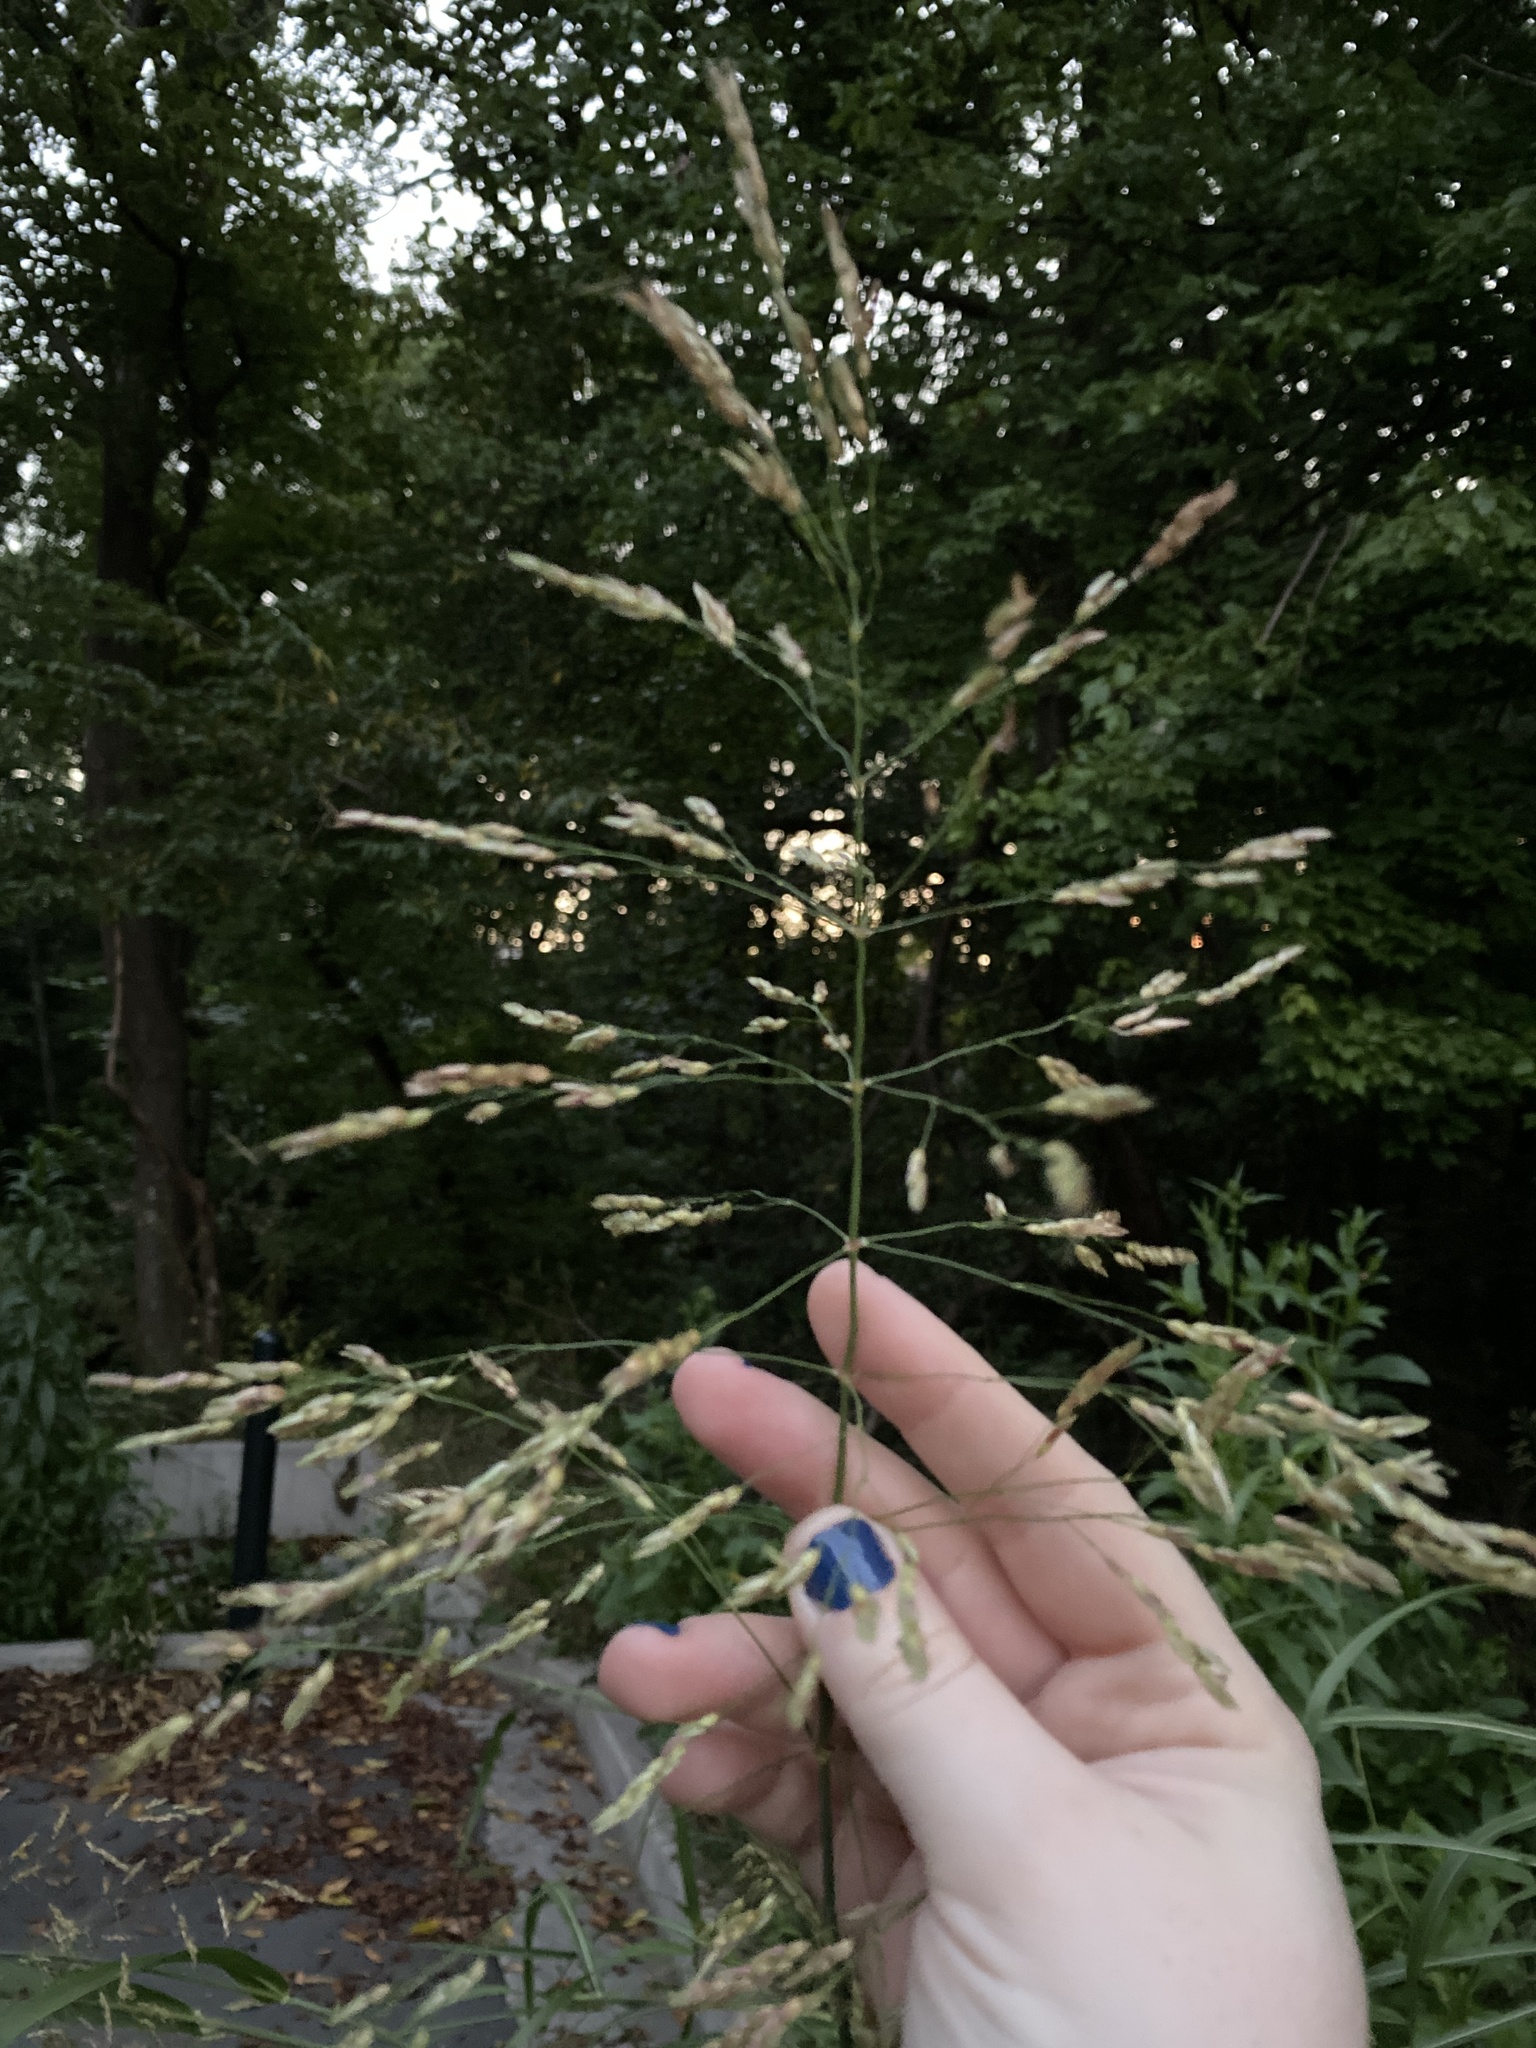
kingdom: Plantae
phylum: Tracheophyta
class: Liliopsida
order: Poales
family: Poaceae
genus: Sorghum
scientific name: Sorghum halepense
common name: Johnson-grass
